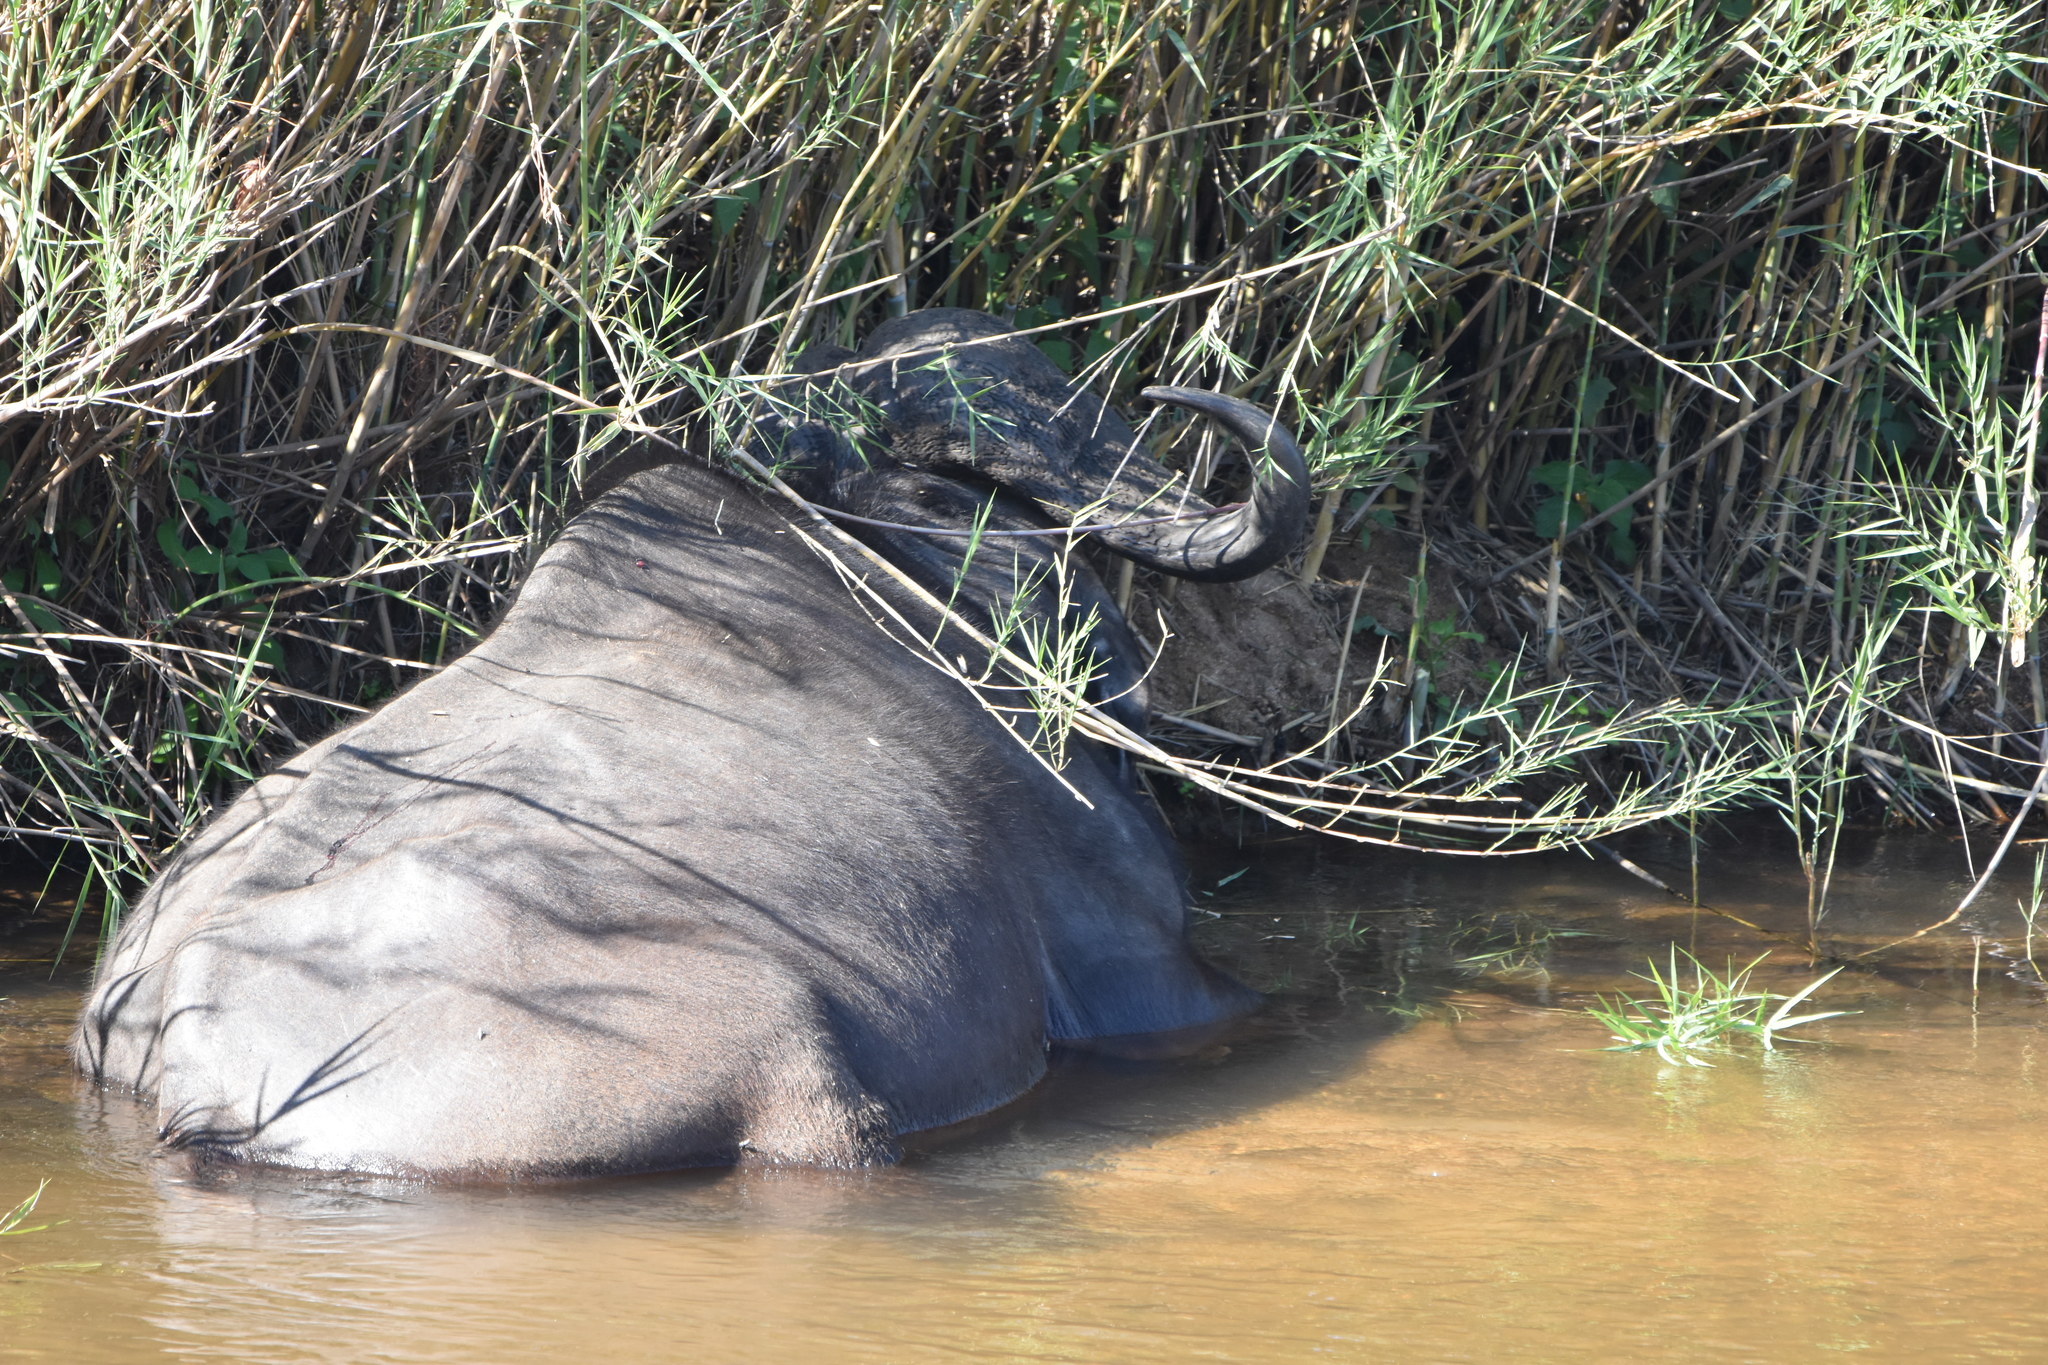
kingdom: Animalia
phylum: Chordata
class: Mammalia
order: Artiodactyla
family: Bovidae
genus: Syncerus
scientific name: Syncerus caffer
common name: African buffalo
